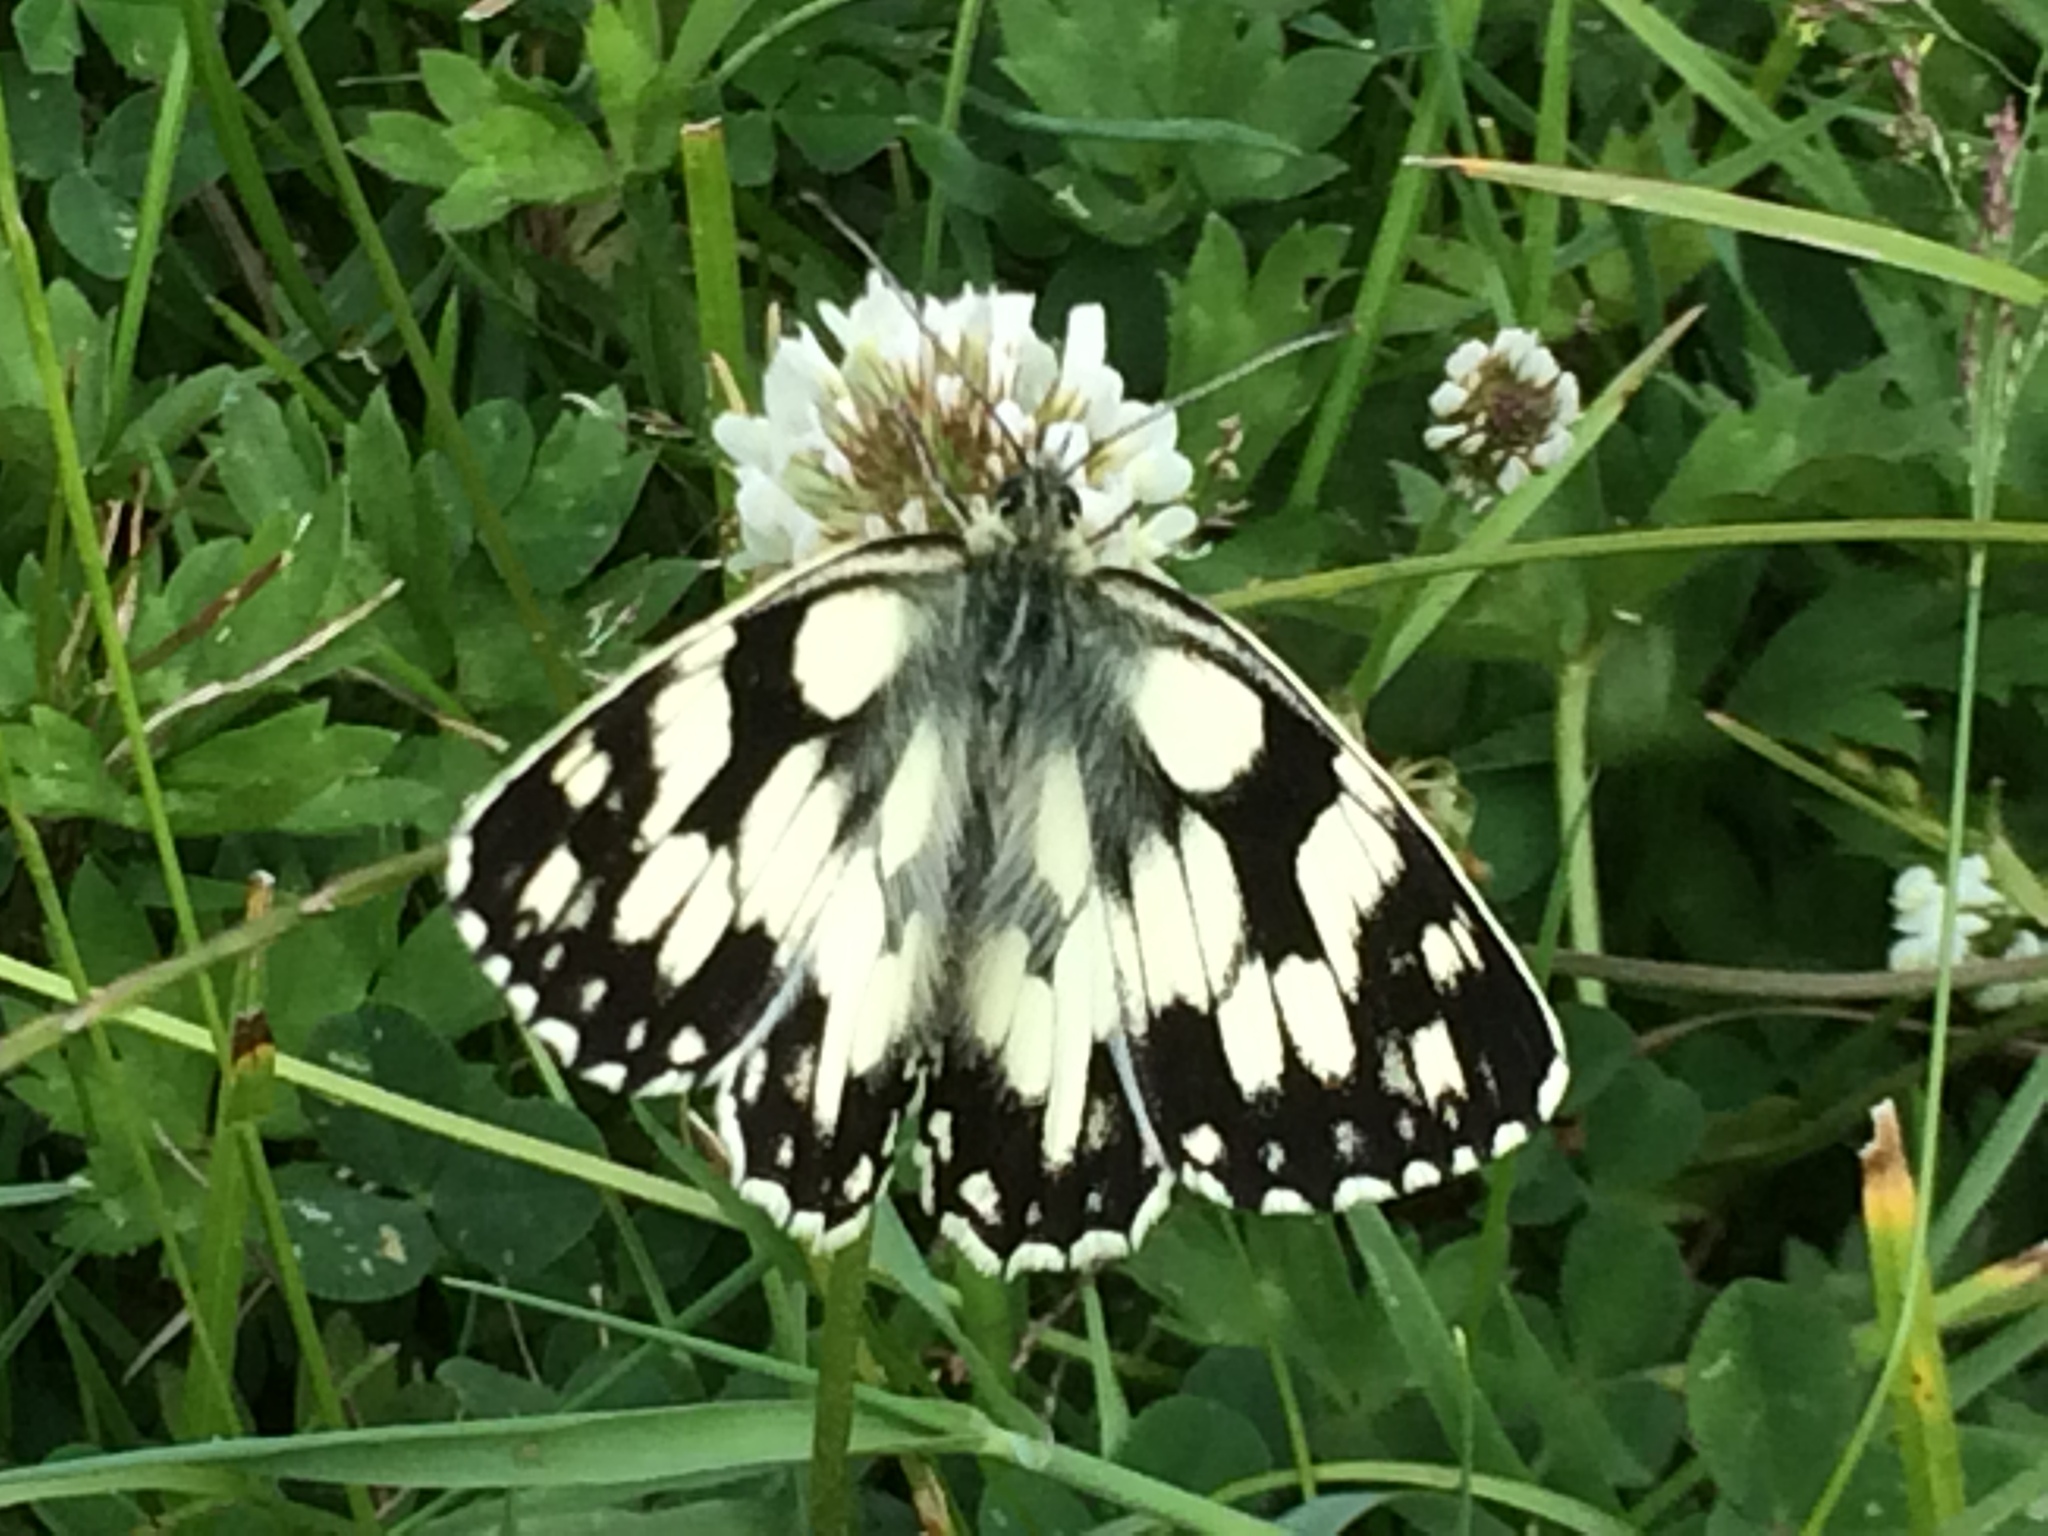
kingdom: Animalia
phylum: Arthropoda
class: Insecta
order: Lepidoptera
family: Nymphalidae
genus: Melanargia
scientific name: Melanargia galathea
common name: Marbled white
